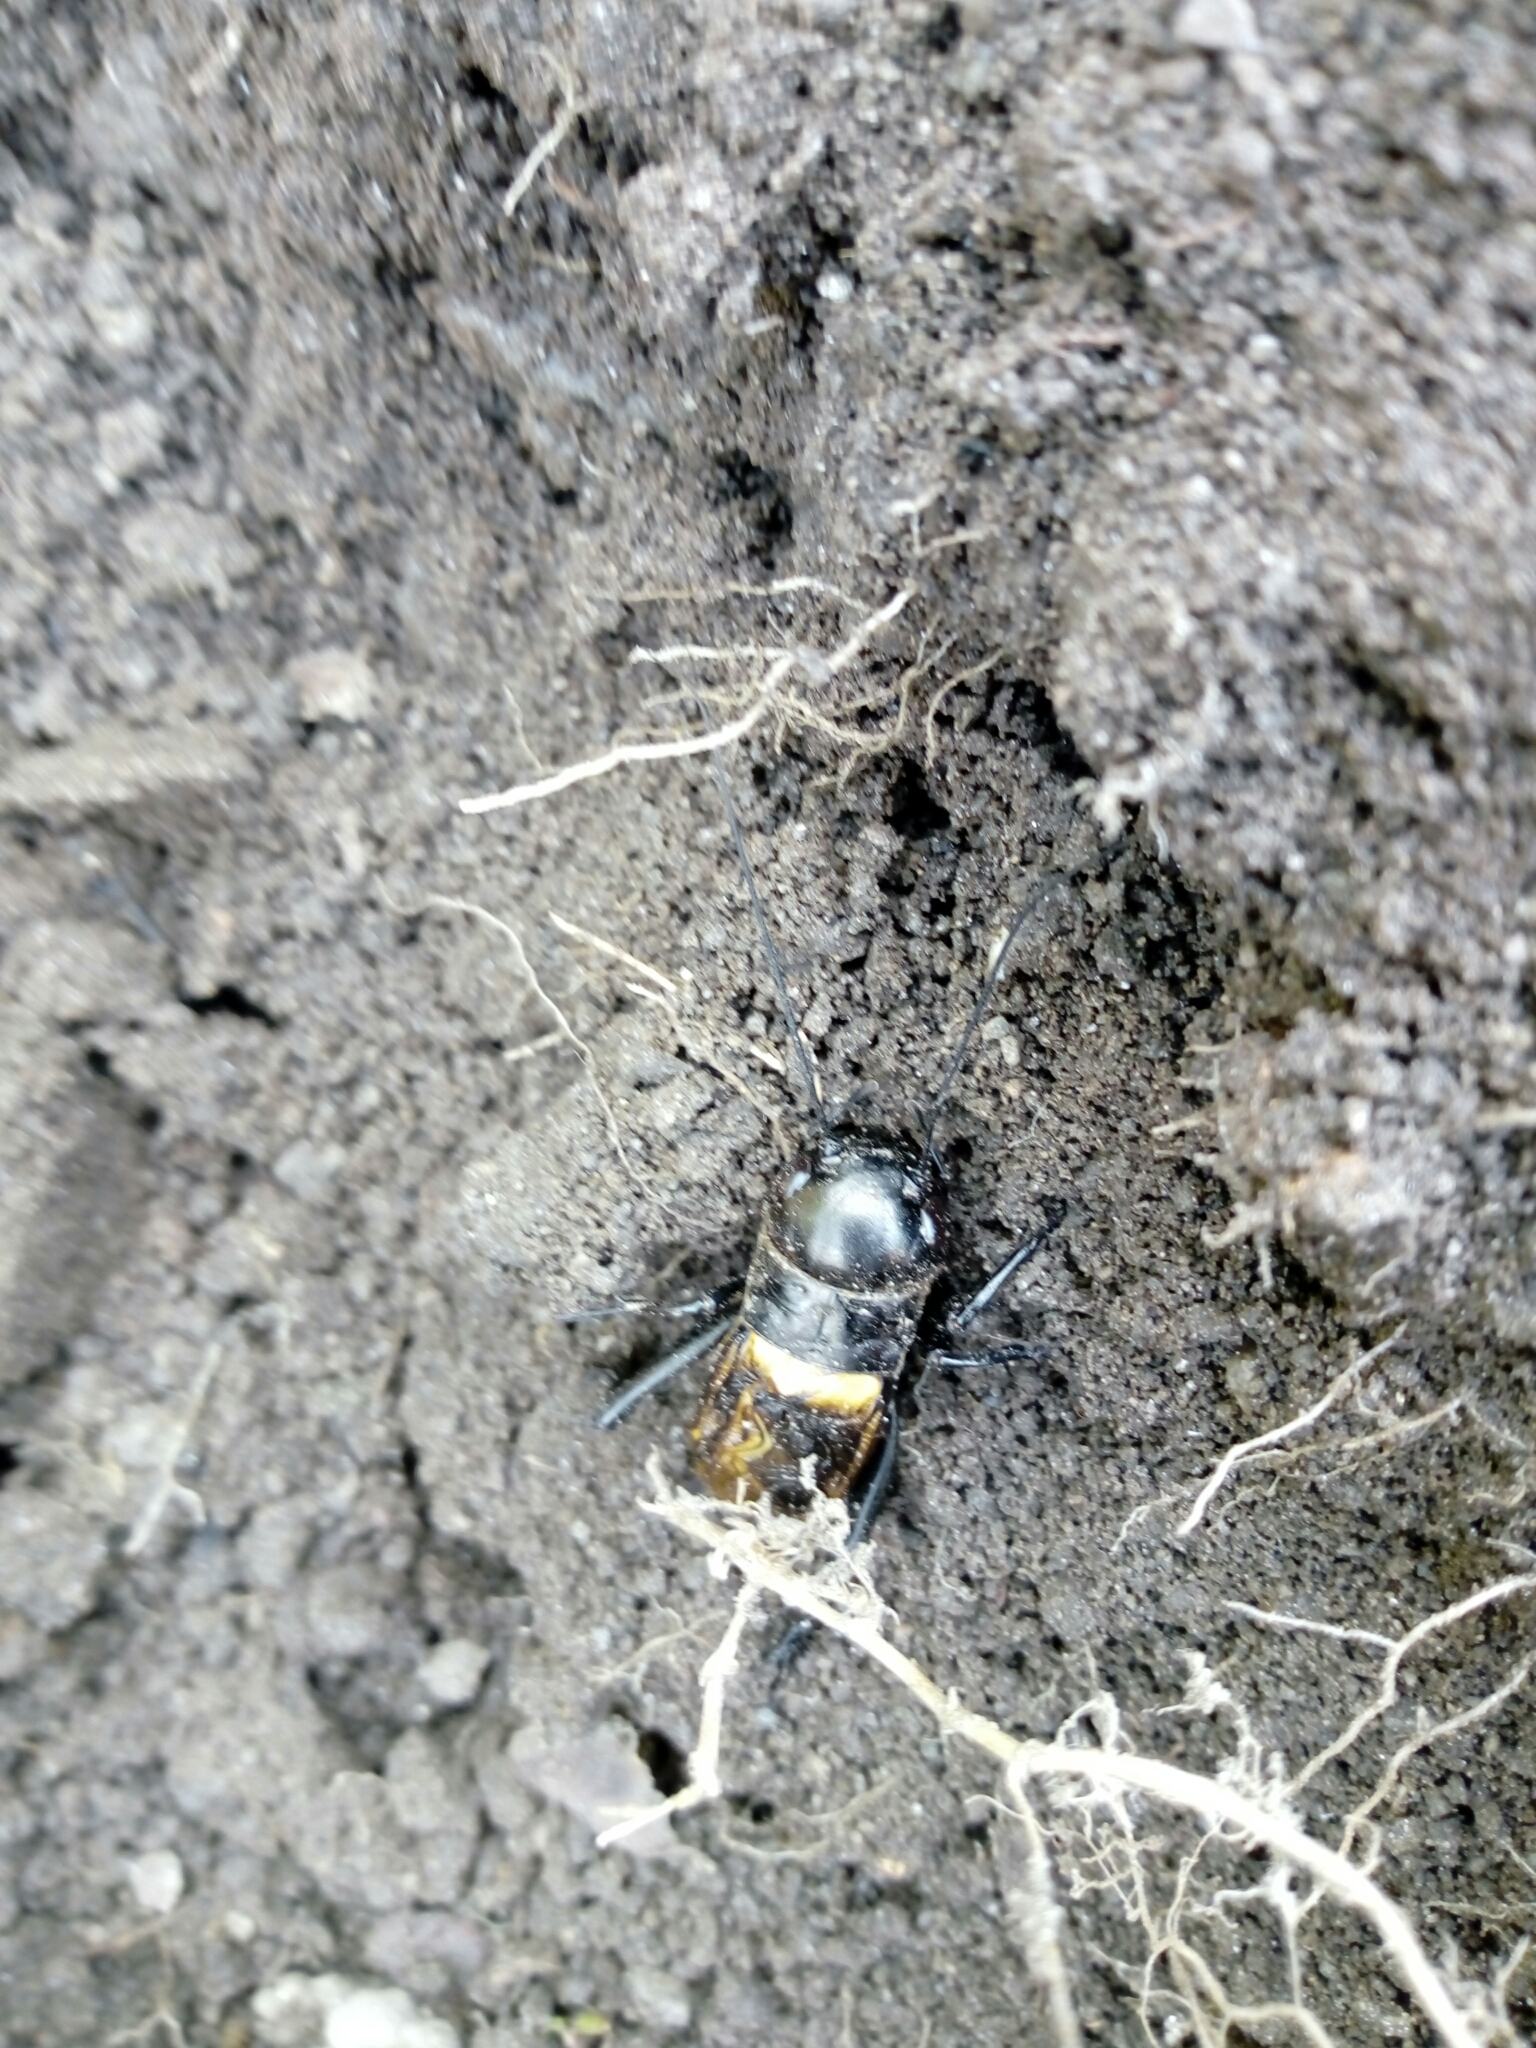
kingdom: Animalia
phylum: Arthropoda
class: Insecta
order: Orthoptera
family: Gryllidae
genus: Gryllus
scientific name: Gryllus campestris
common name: Field cricket
